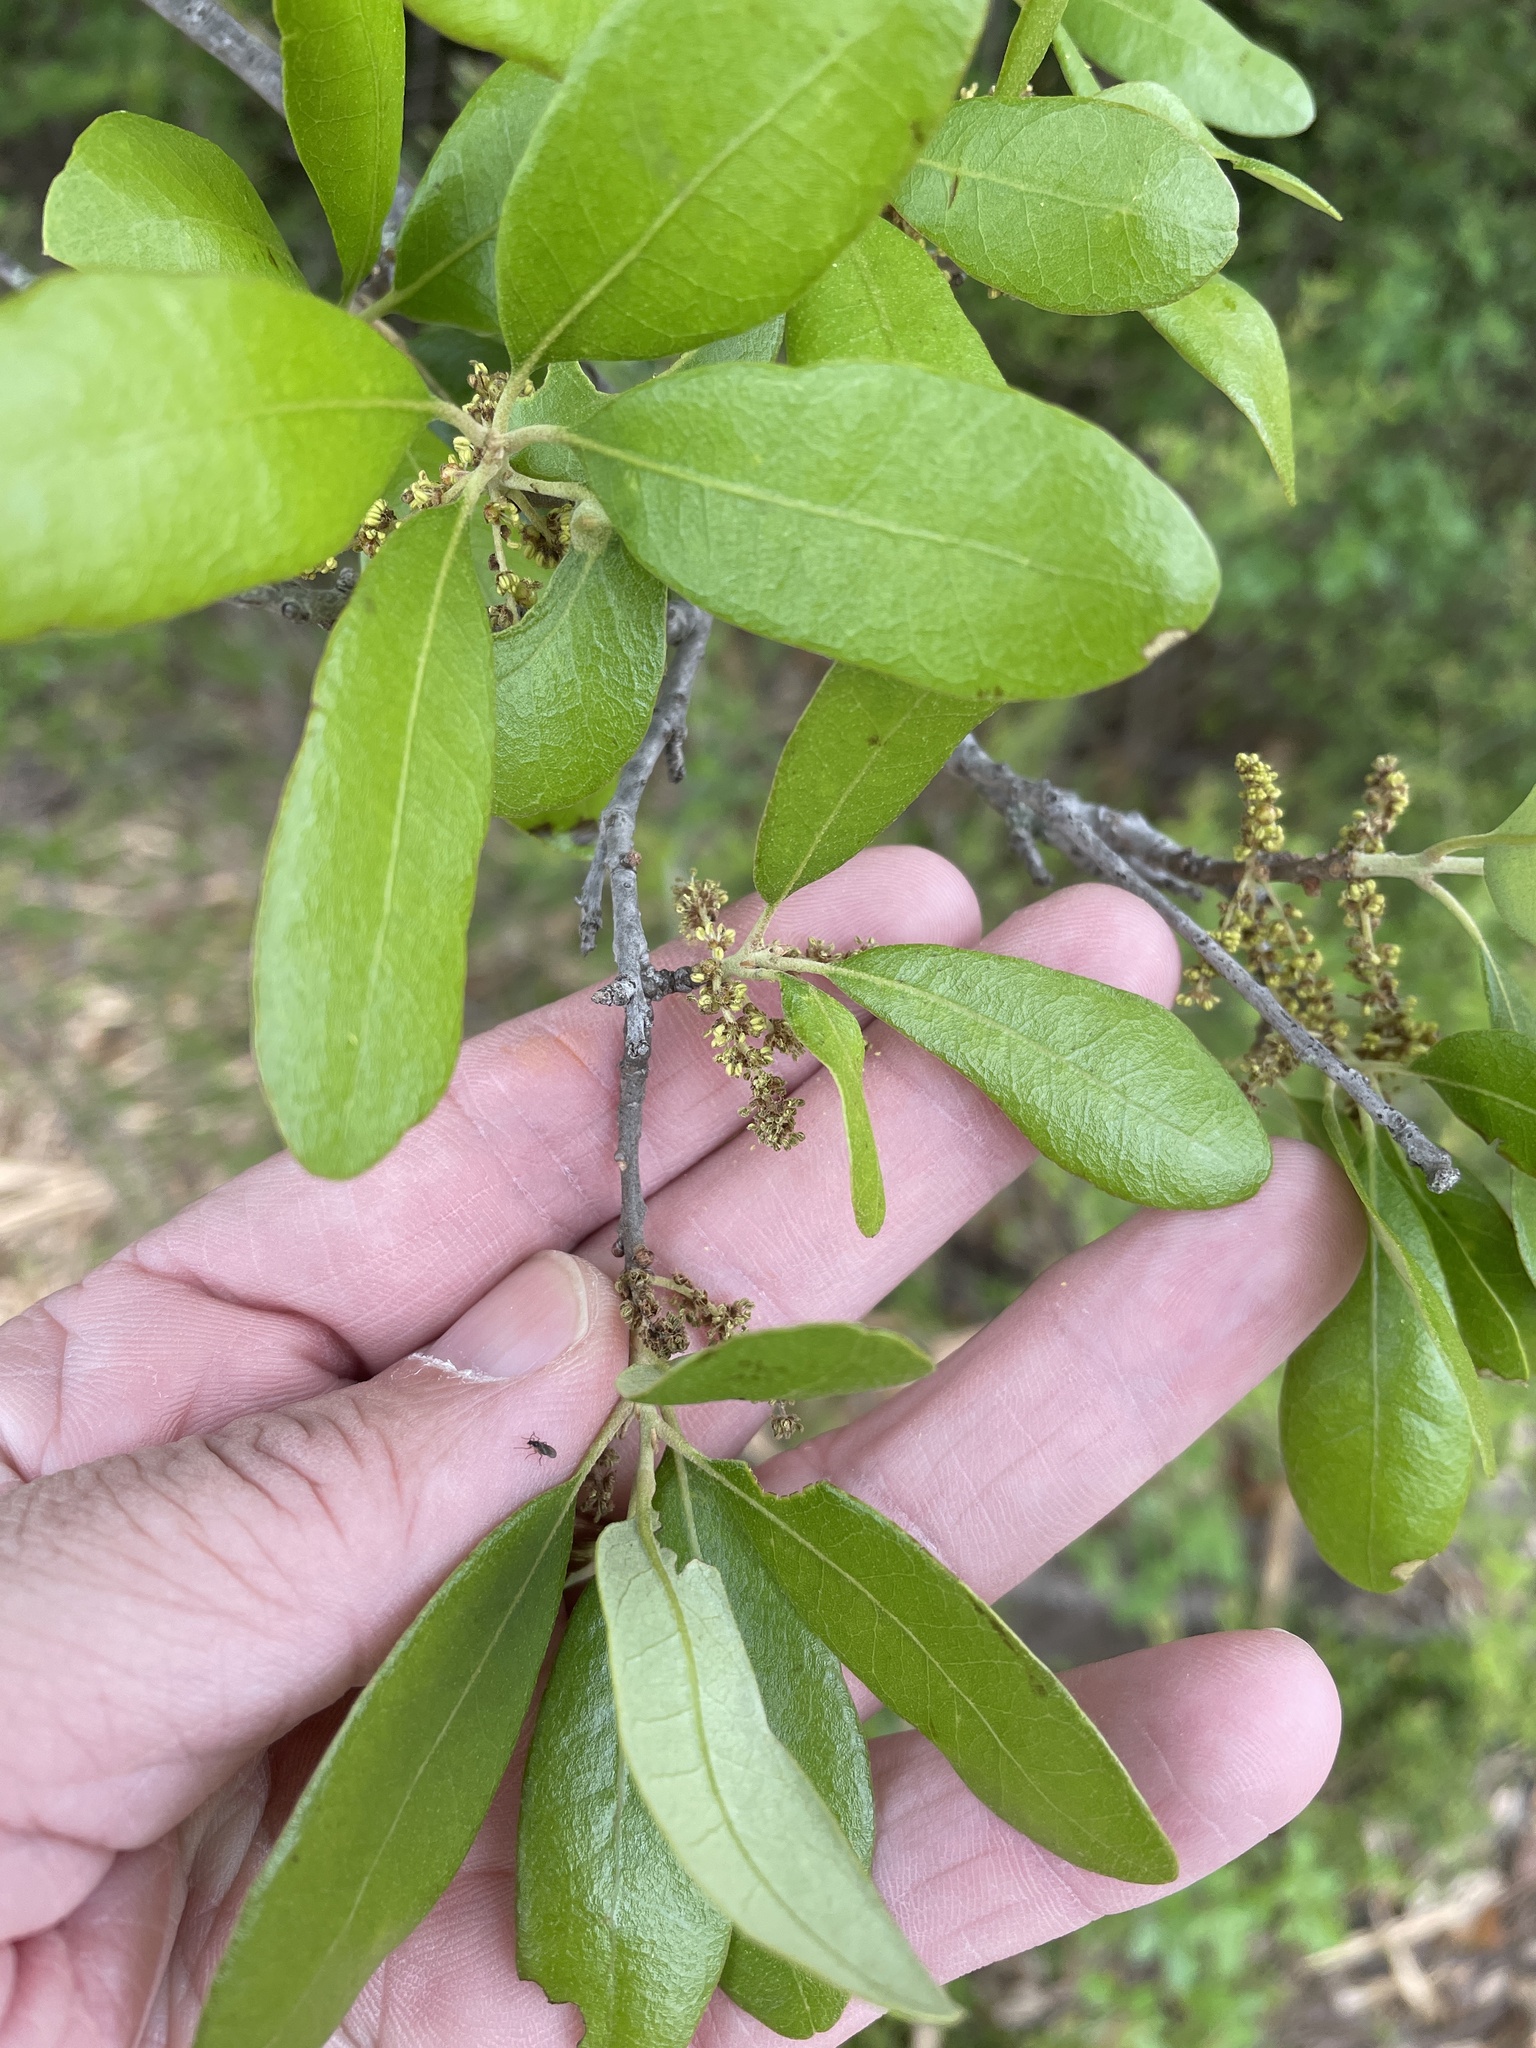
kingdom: Plantae
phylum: Tracheophyta
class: Magnoliopsida
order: Fagales
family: Fagaceae
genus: Quercus
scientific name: Quercus fusiformis
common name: Texas live oak
